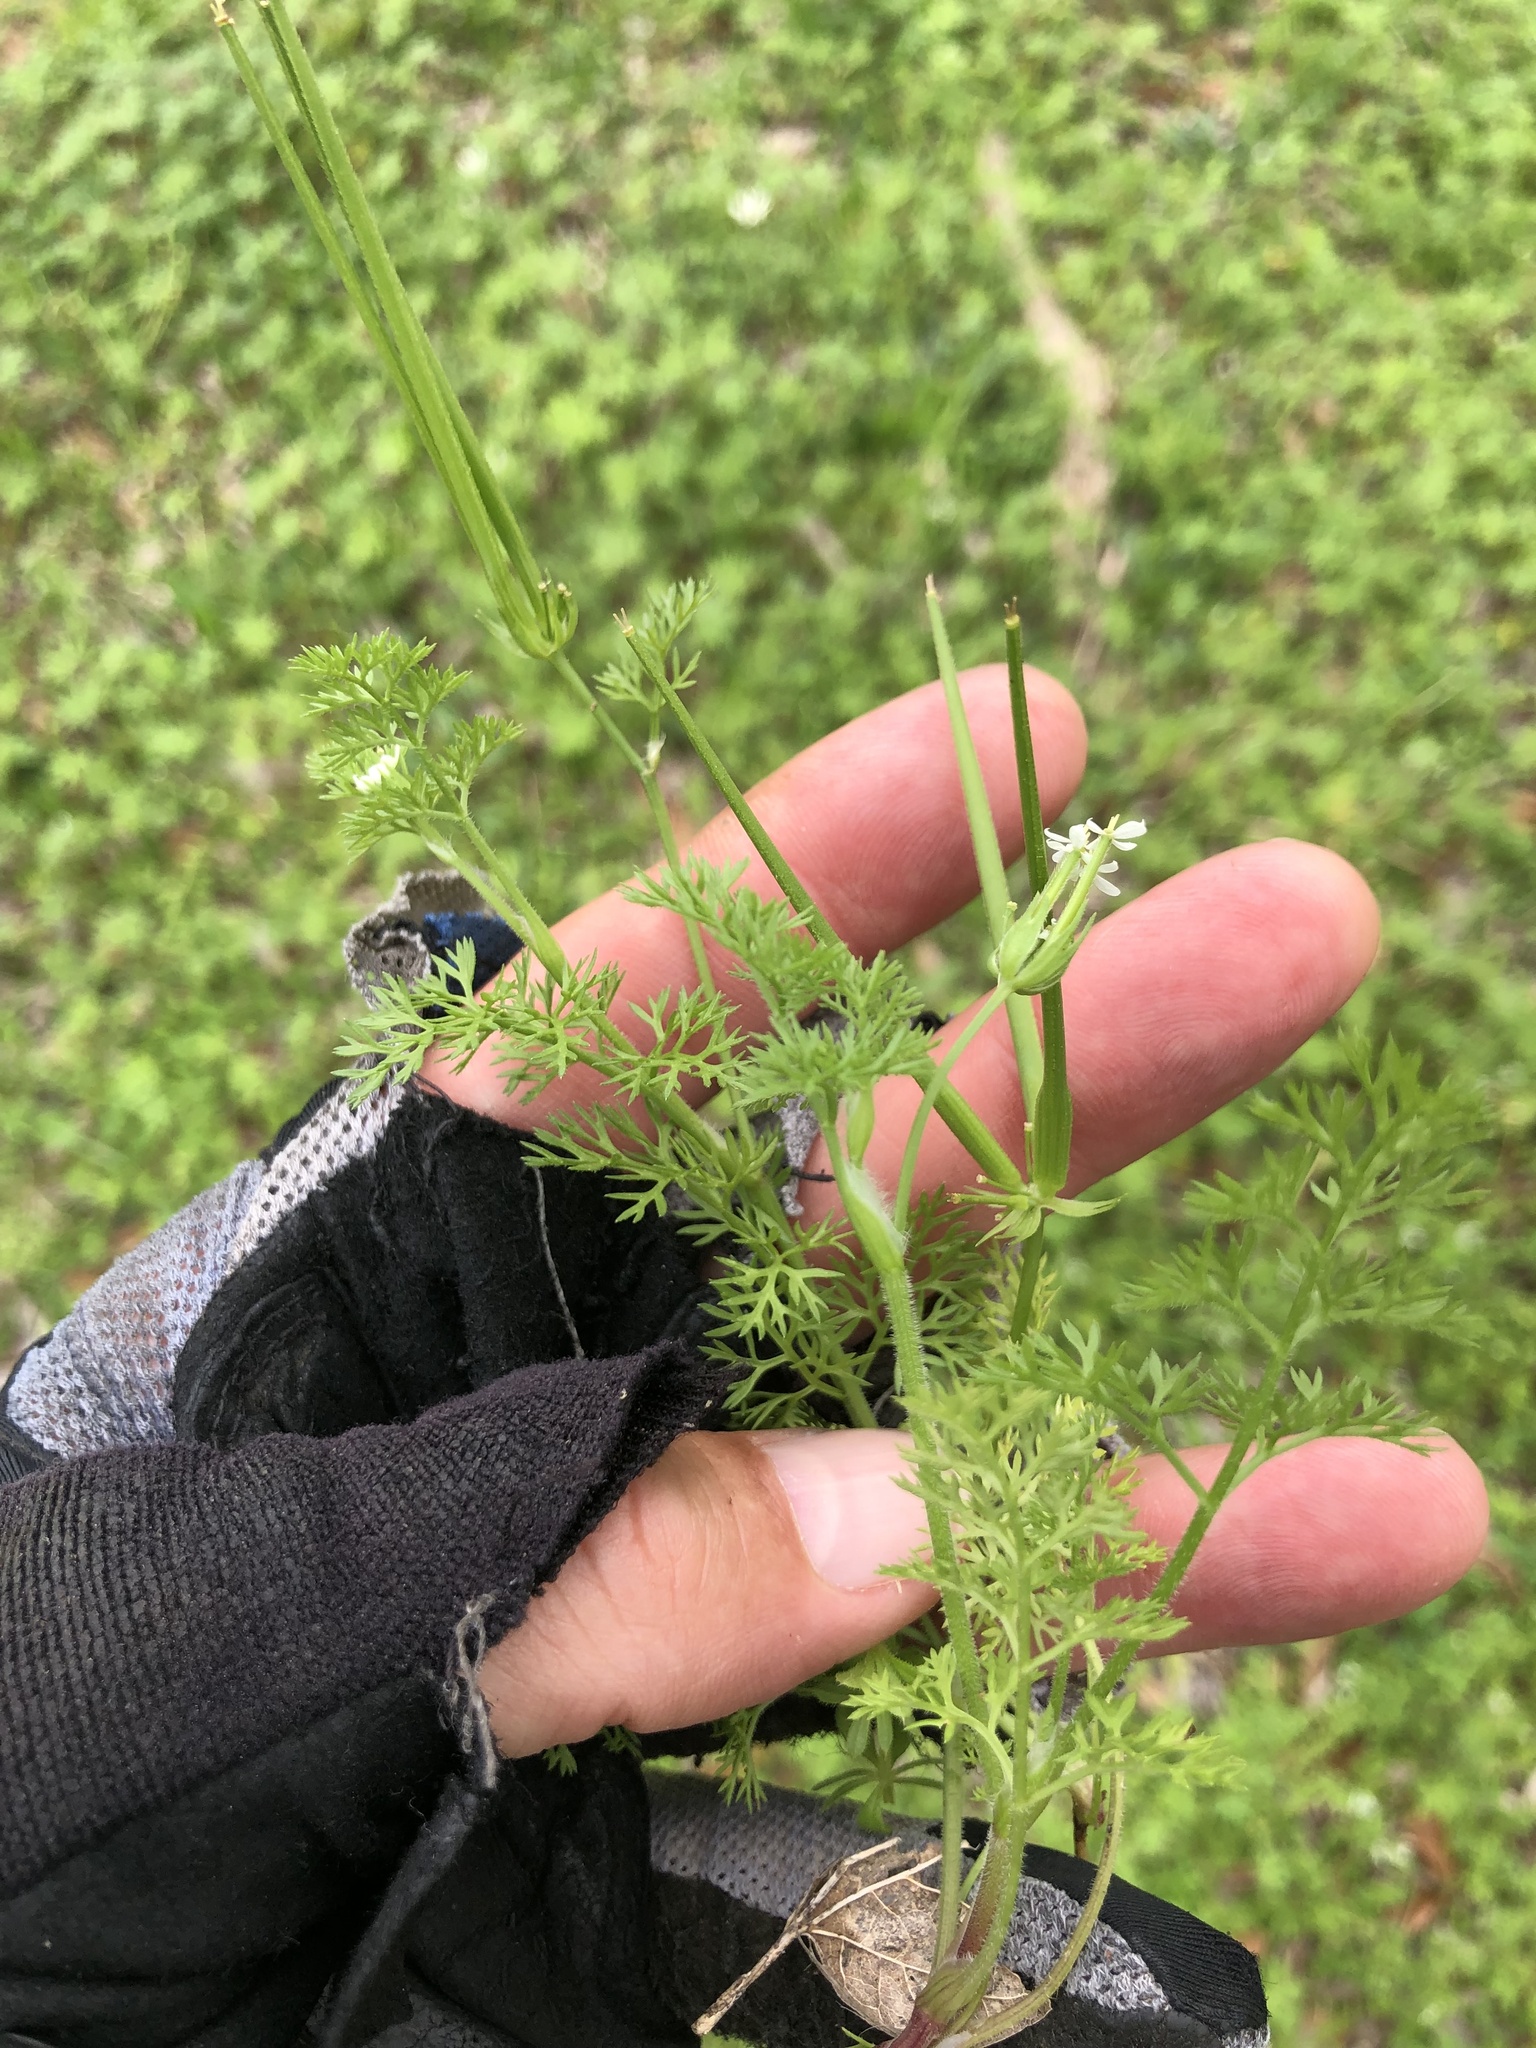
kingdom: Plantae
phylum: Tracheophyta
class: Magnoliopsida
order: Apiales
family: Apiaceae
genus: Scandix
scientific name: Scandix pecten-veneris
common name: Shepherd's-needle
